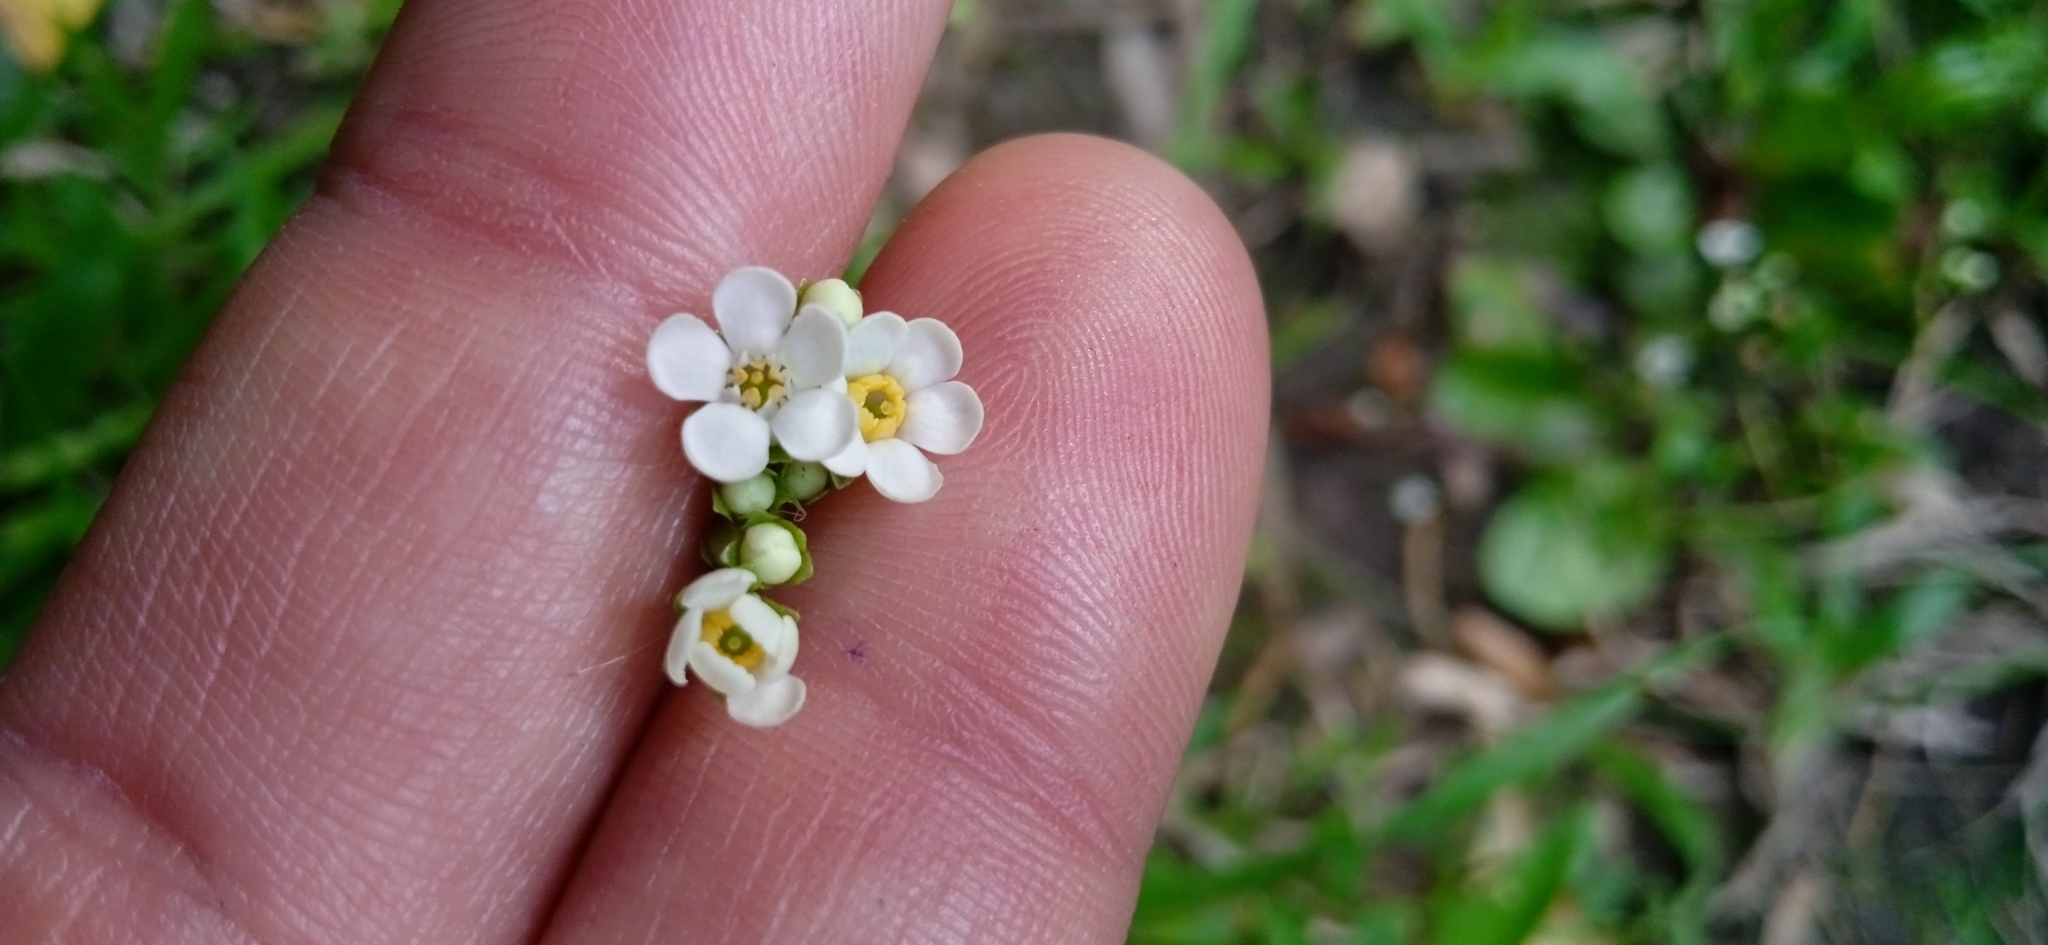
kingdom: Plantae
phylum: Tracheophyta
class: Magnoliopsida
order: Ericales
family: Primulaceae
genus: Samolus
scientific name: Samolus subnudicaulis
